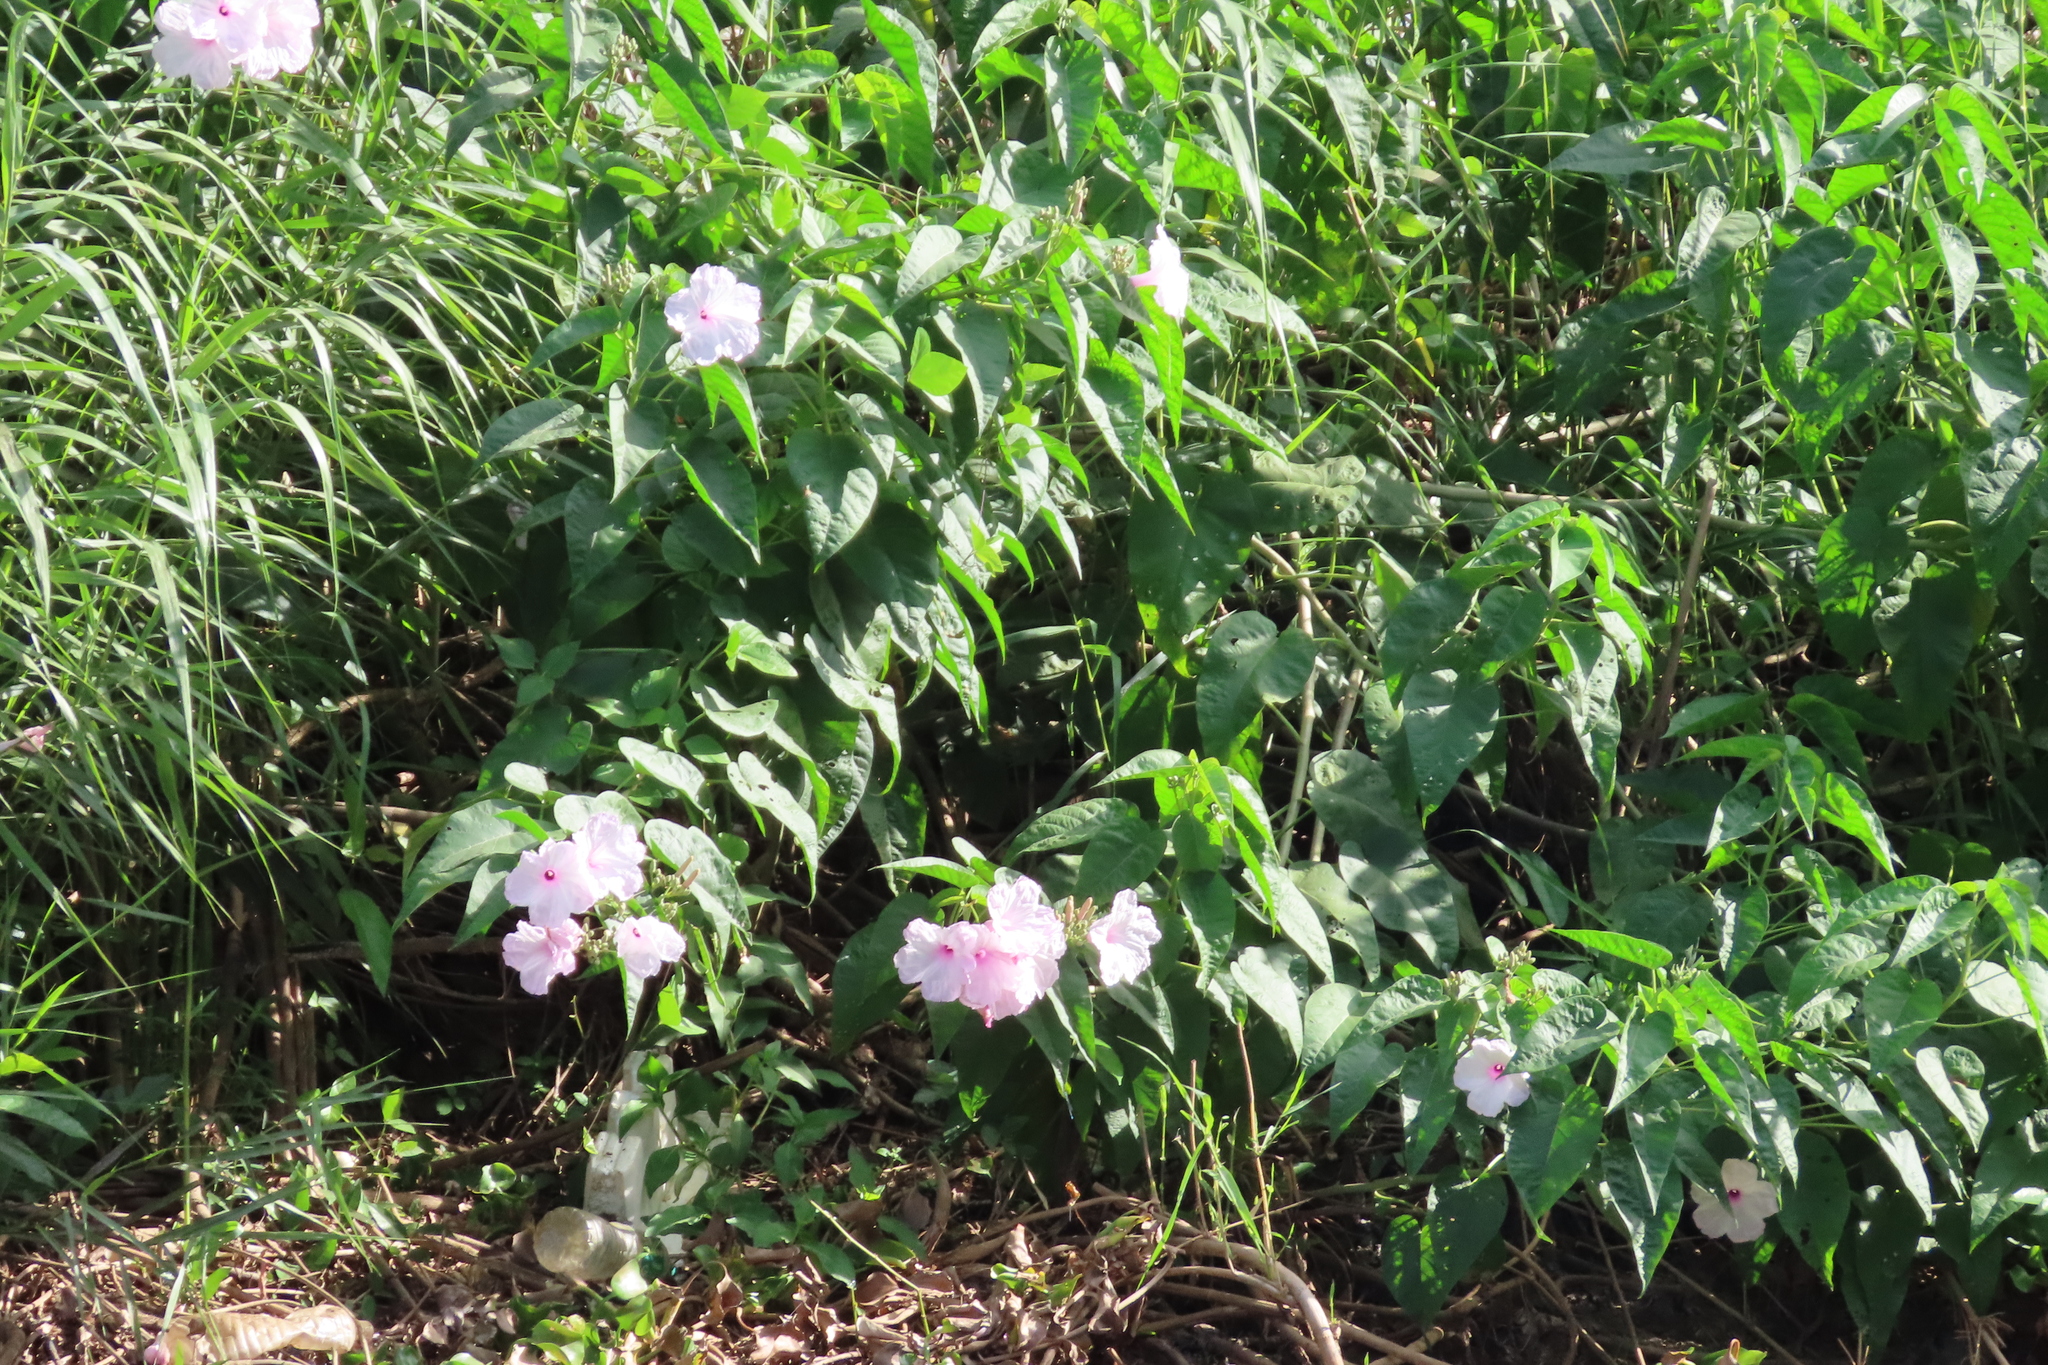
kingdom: Plantae
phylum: Tracheophyta
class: Magnoliopsida
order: Solanales
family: Convolvulaceae
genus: Ipomoea
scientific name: Ipomoea carnea
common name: Morning-glory
